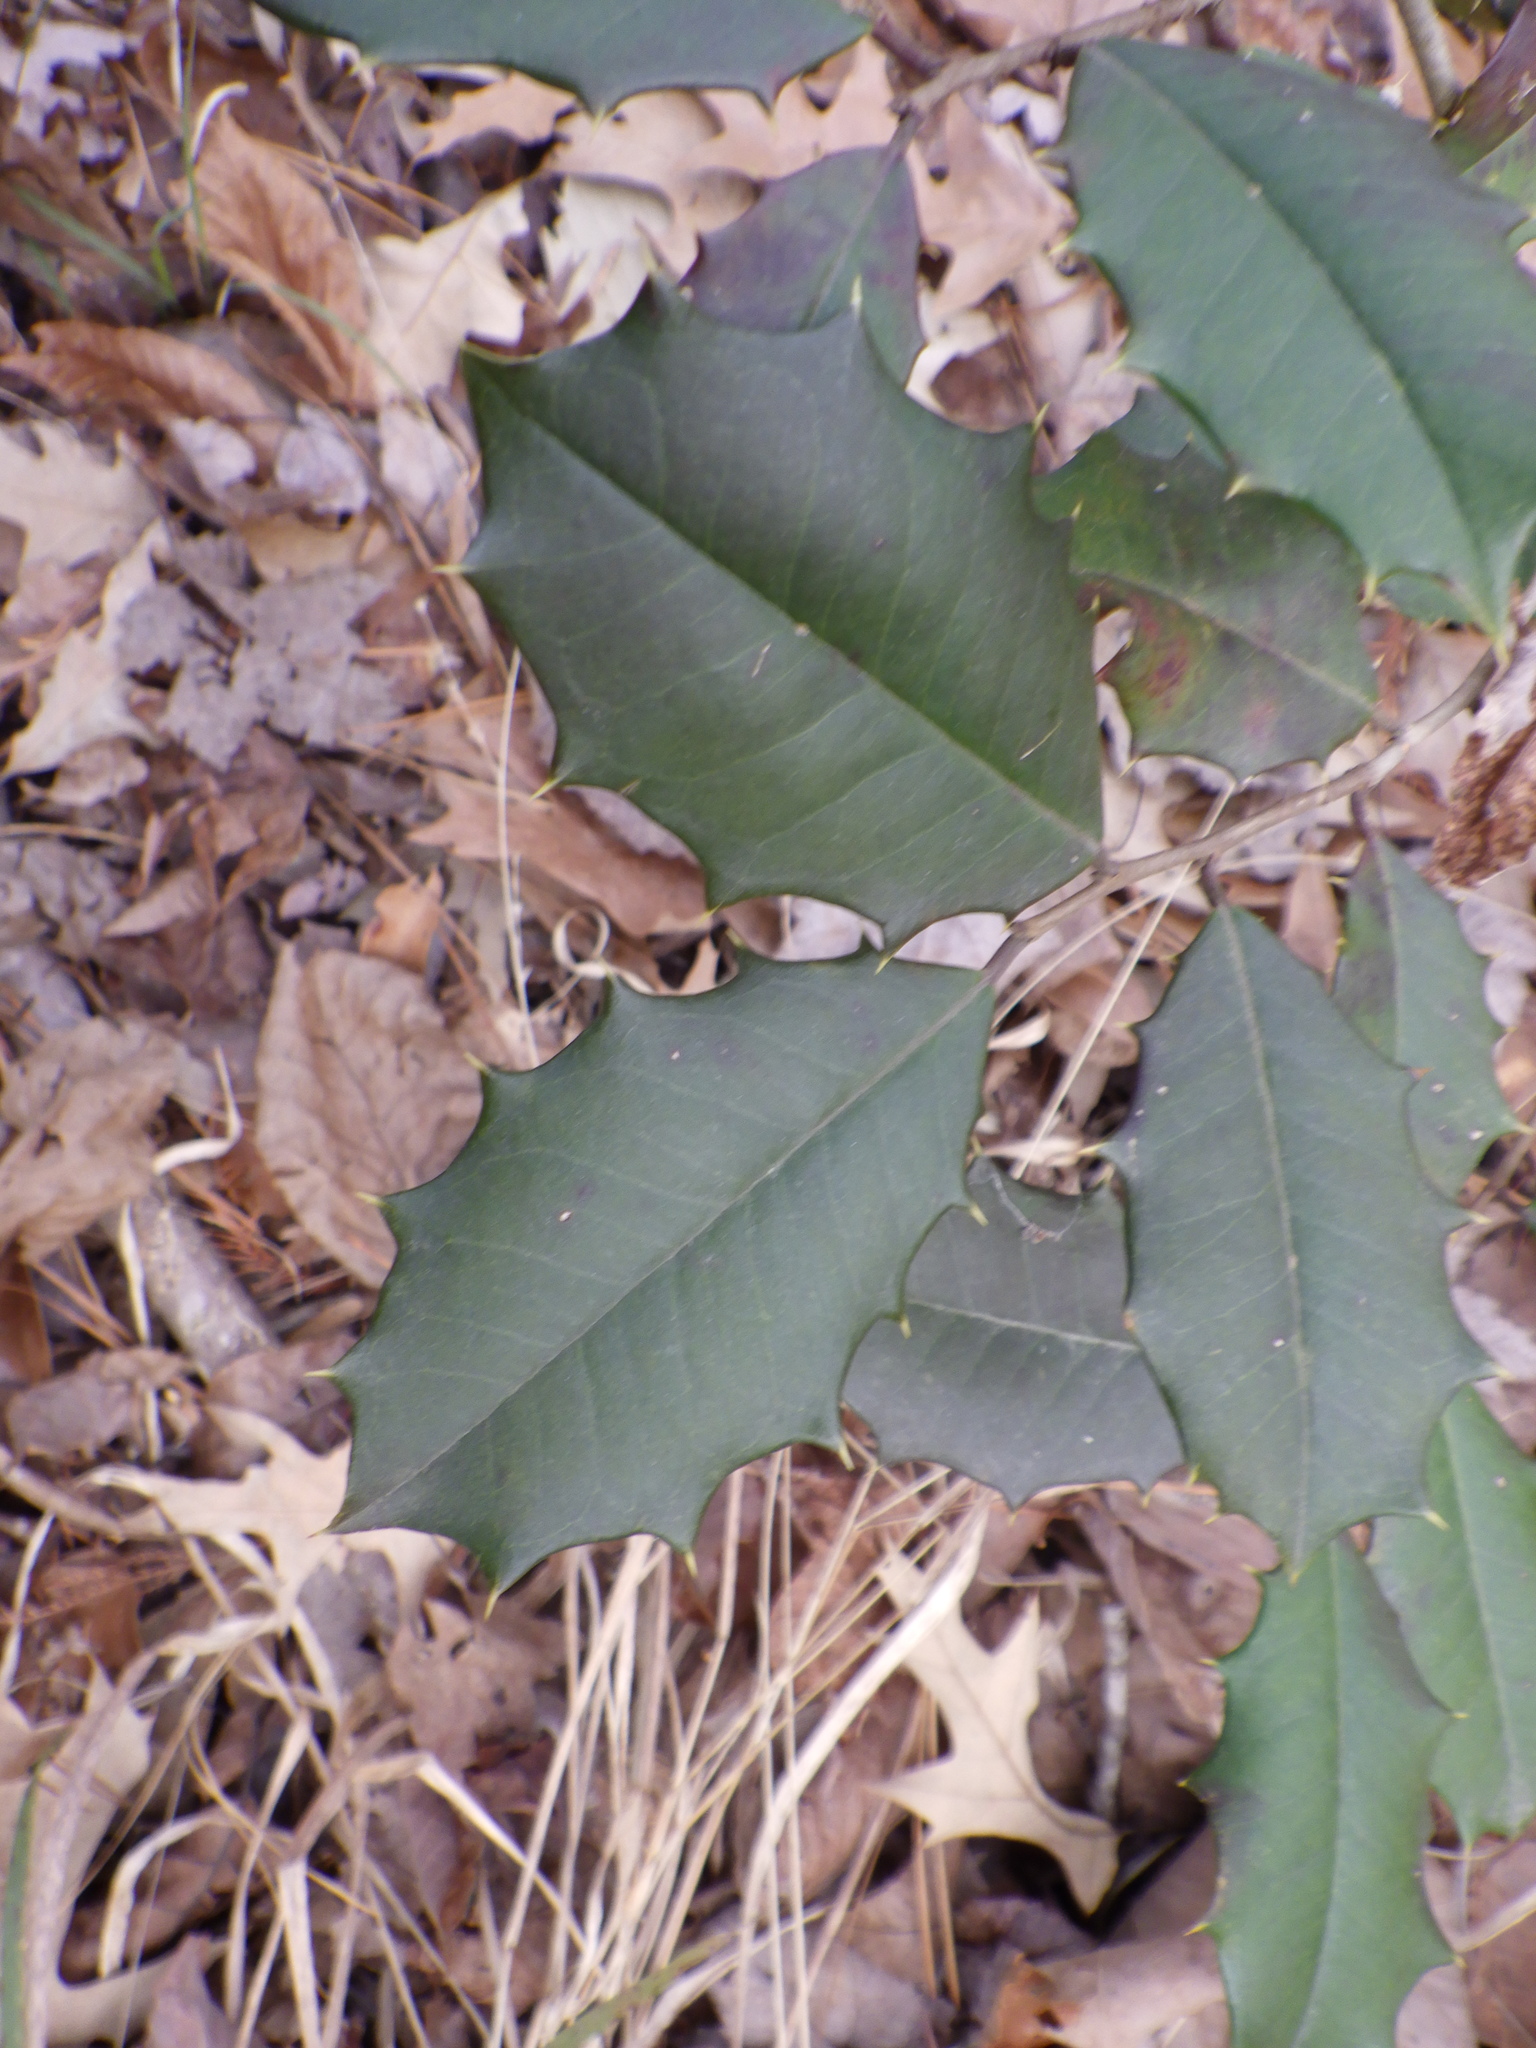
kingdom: Plantae
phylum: Tracheophyta
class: Magnoliopsida
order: Aquifoliales
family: Aquifoliaceae
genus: Ilex
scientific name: Ilex opaca
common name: American holly
